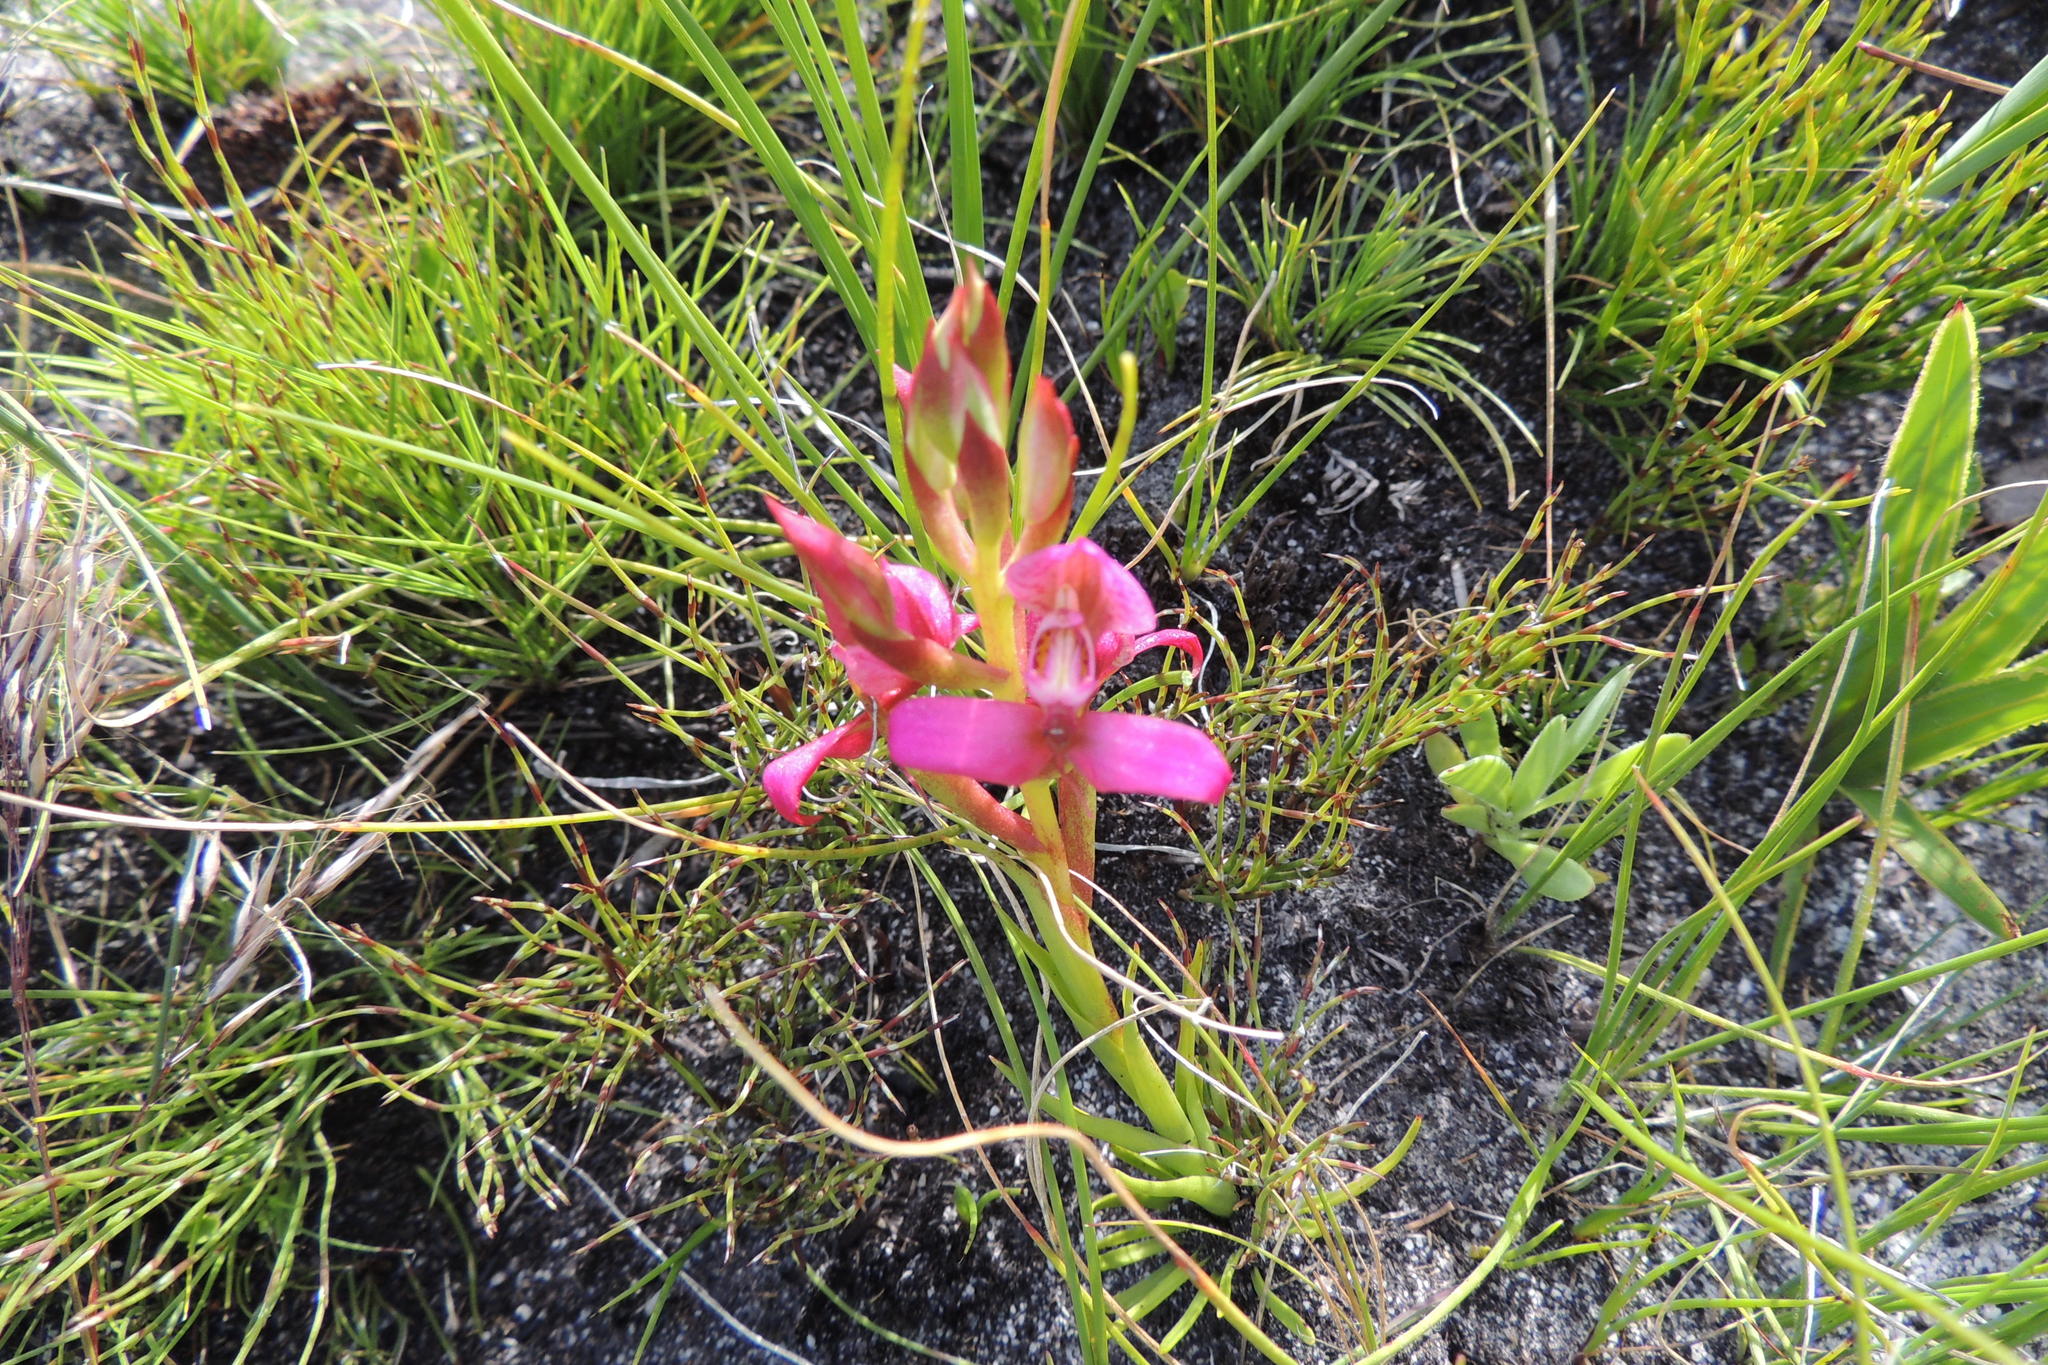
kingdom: Plantae
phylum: Tracheophyta
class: Liliopsida
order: Asparagales
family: Orchidaceae
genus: Disa
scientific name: Disa filicornis
